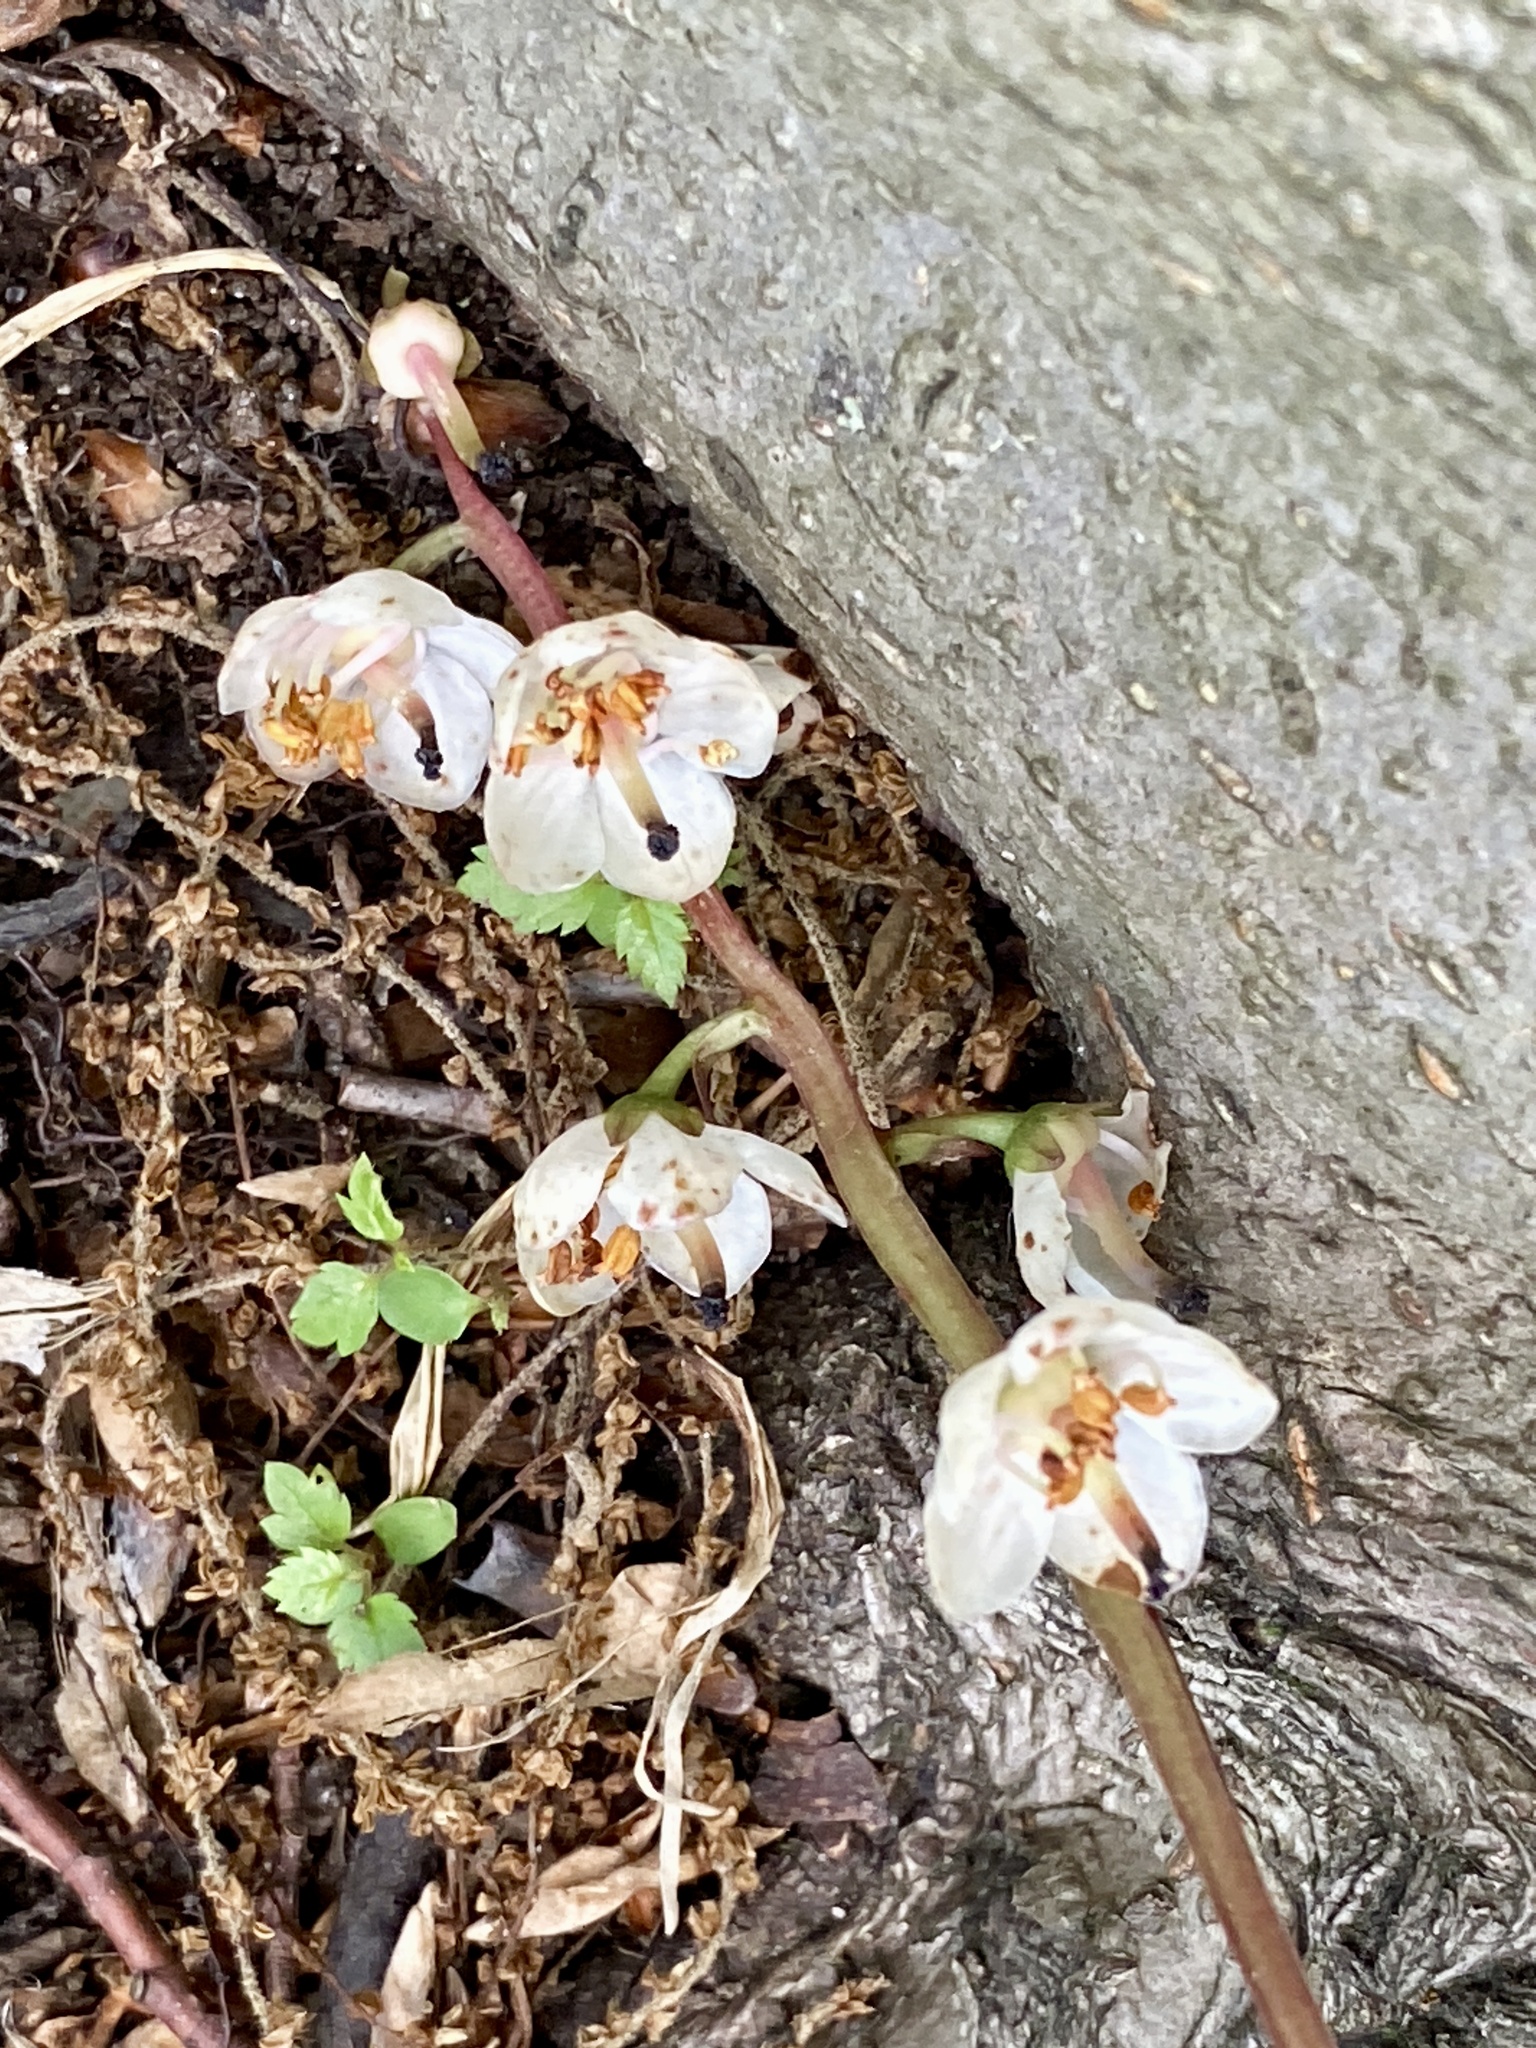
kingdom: Plantae
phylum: Tracheophyta
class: Magnoliopsida
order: Ericales
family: Ericaceae
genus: Pyrola
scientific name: Pyrola americana
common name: American wintergreen
